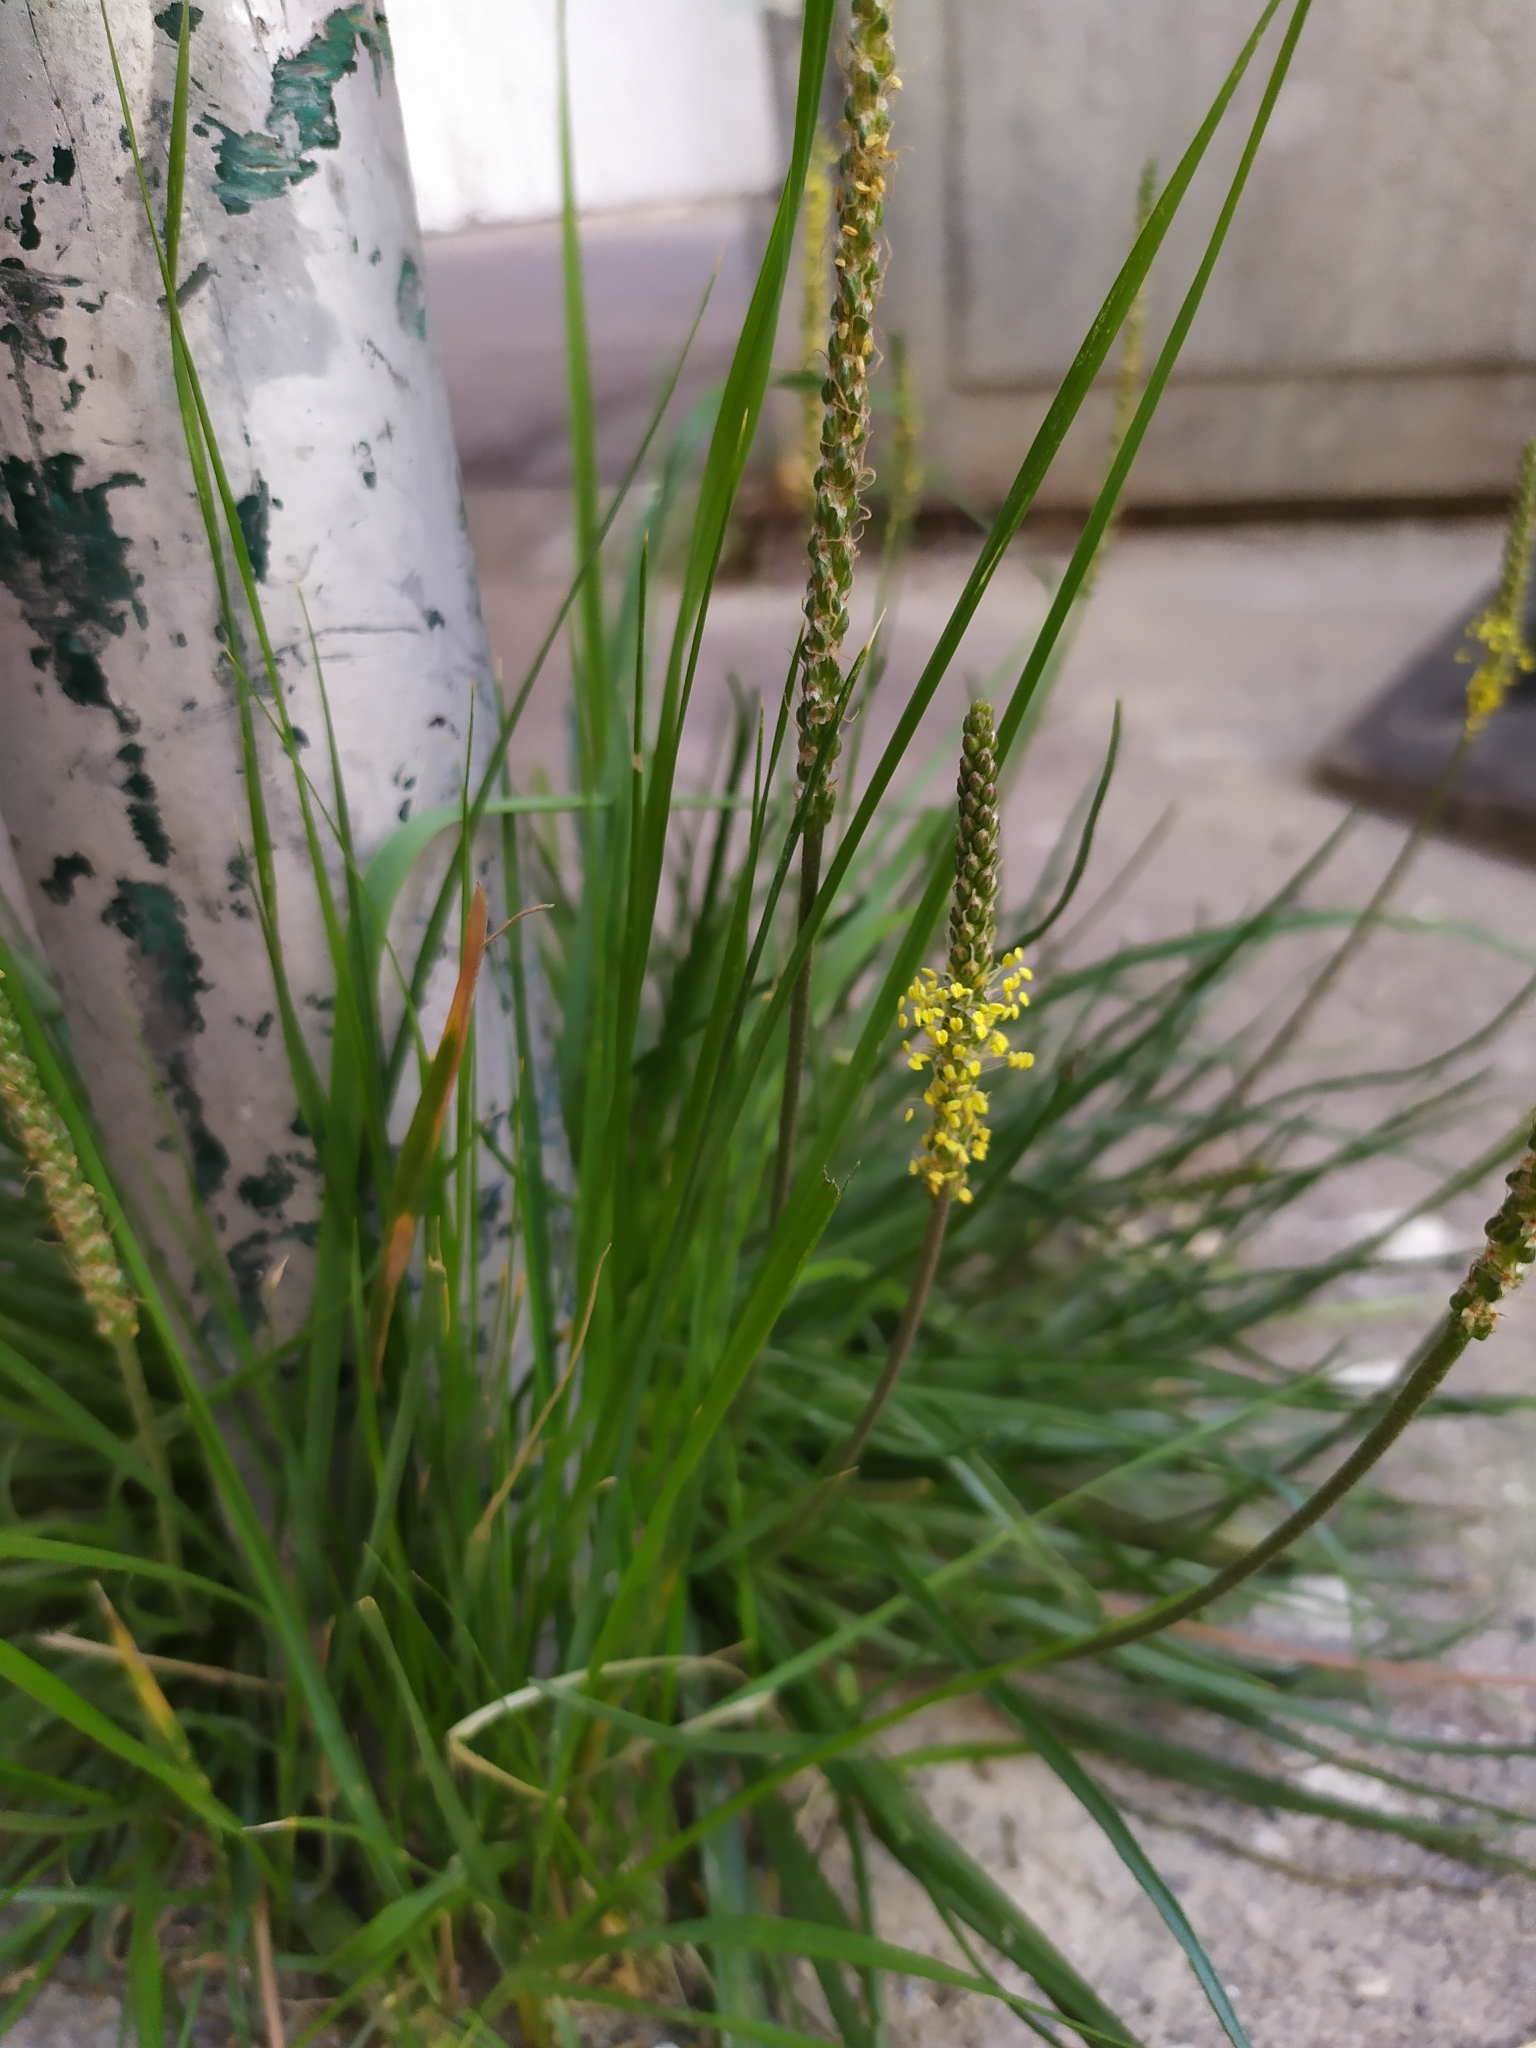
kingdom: Plantae
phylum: Tracheophyta
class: Magnoliopsida
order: Lamiales
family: Plantaginaceae
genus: Plantago
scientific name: Plantago maritima
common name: Sea plantain
